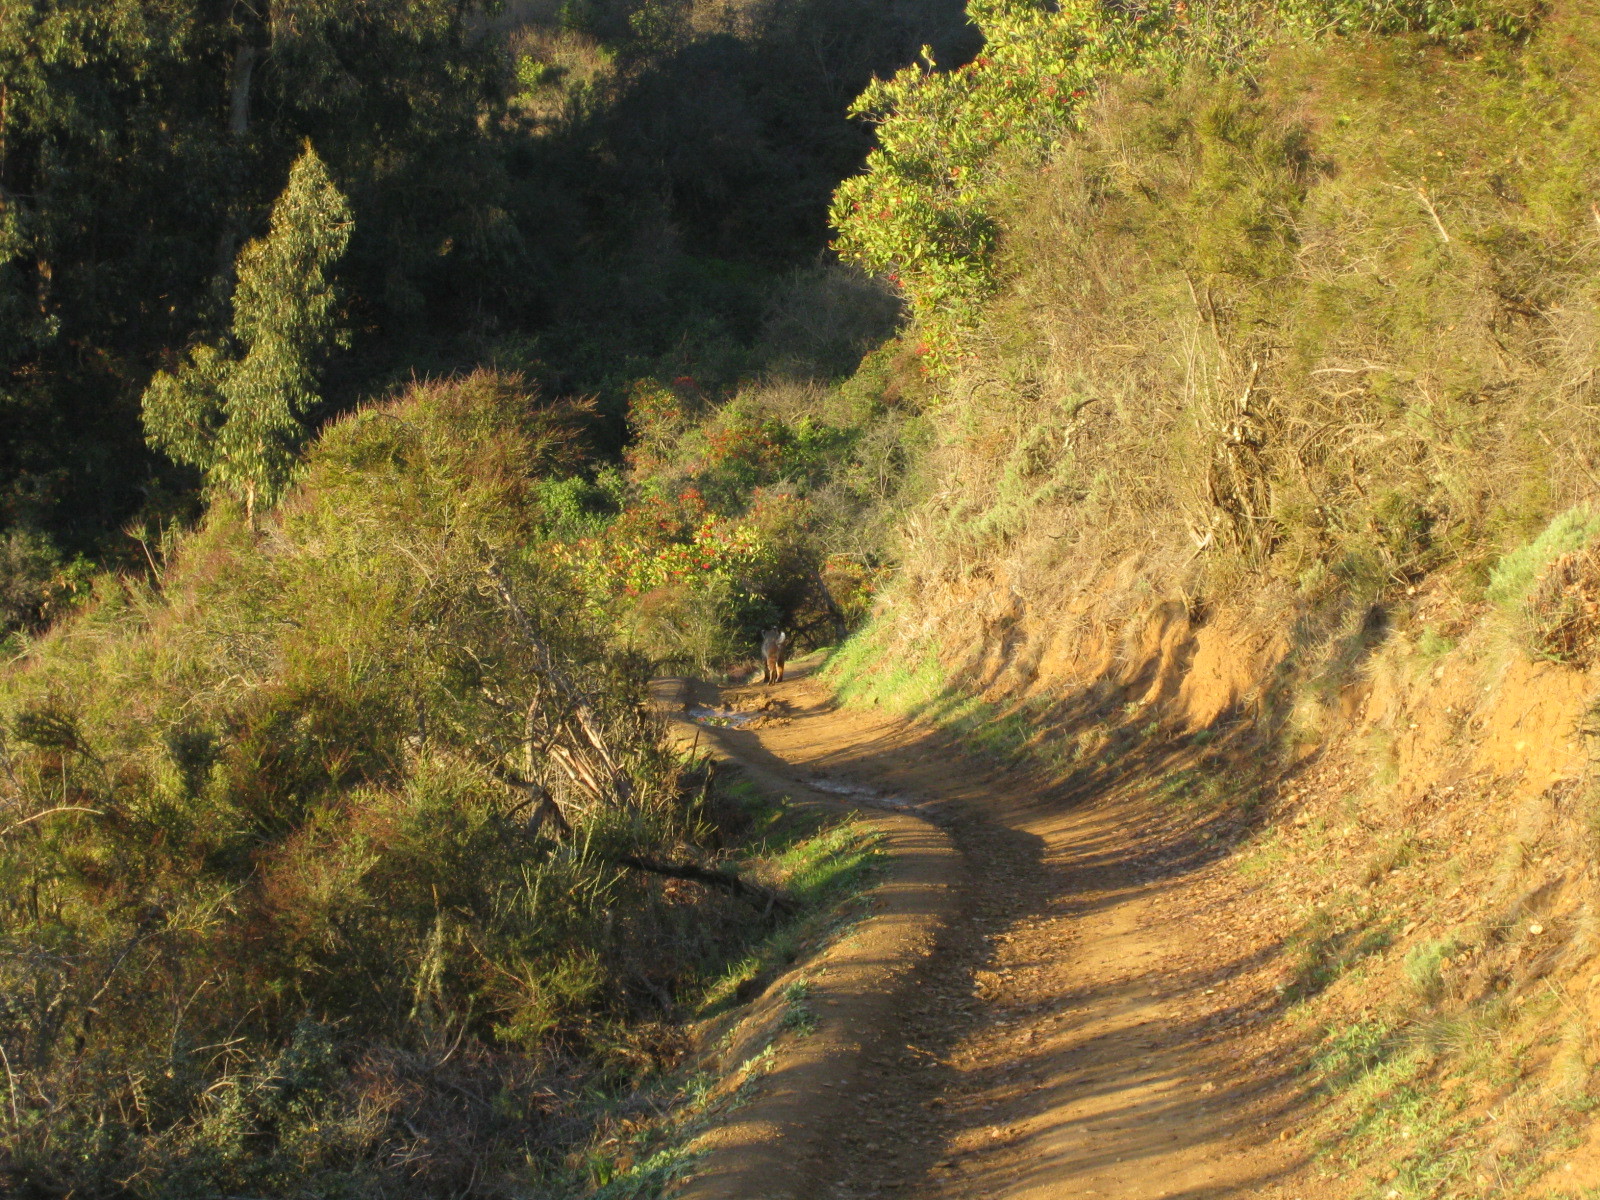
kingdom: Animalia
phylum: Chordata
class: Mammalia
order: Carnivora
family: Felidae
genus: Lynx
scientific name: Lynx rufus
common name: Bobcat
